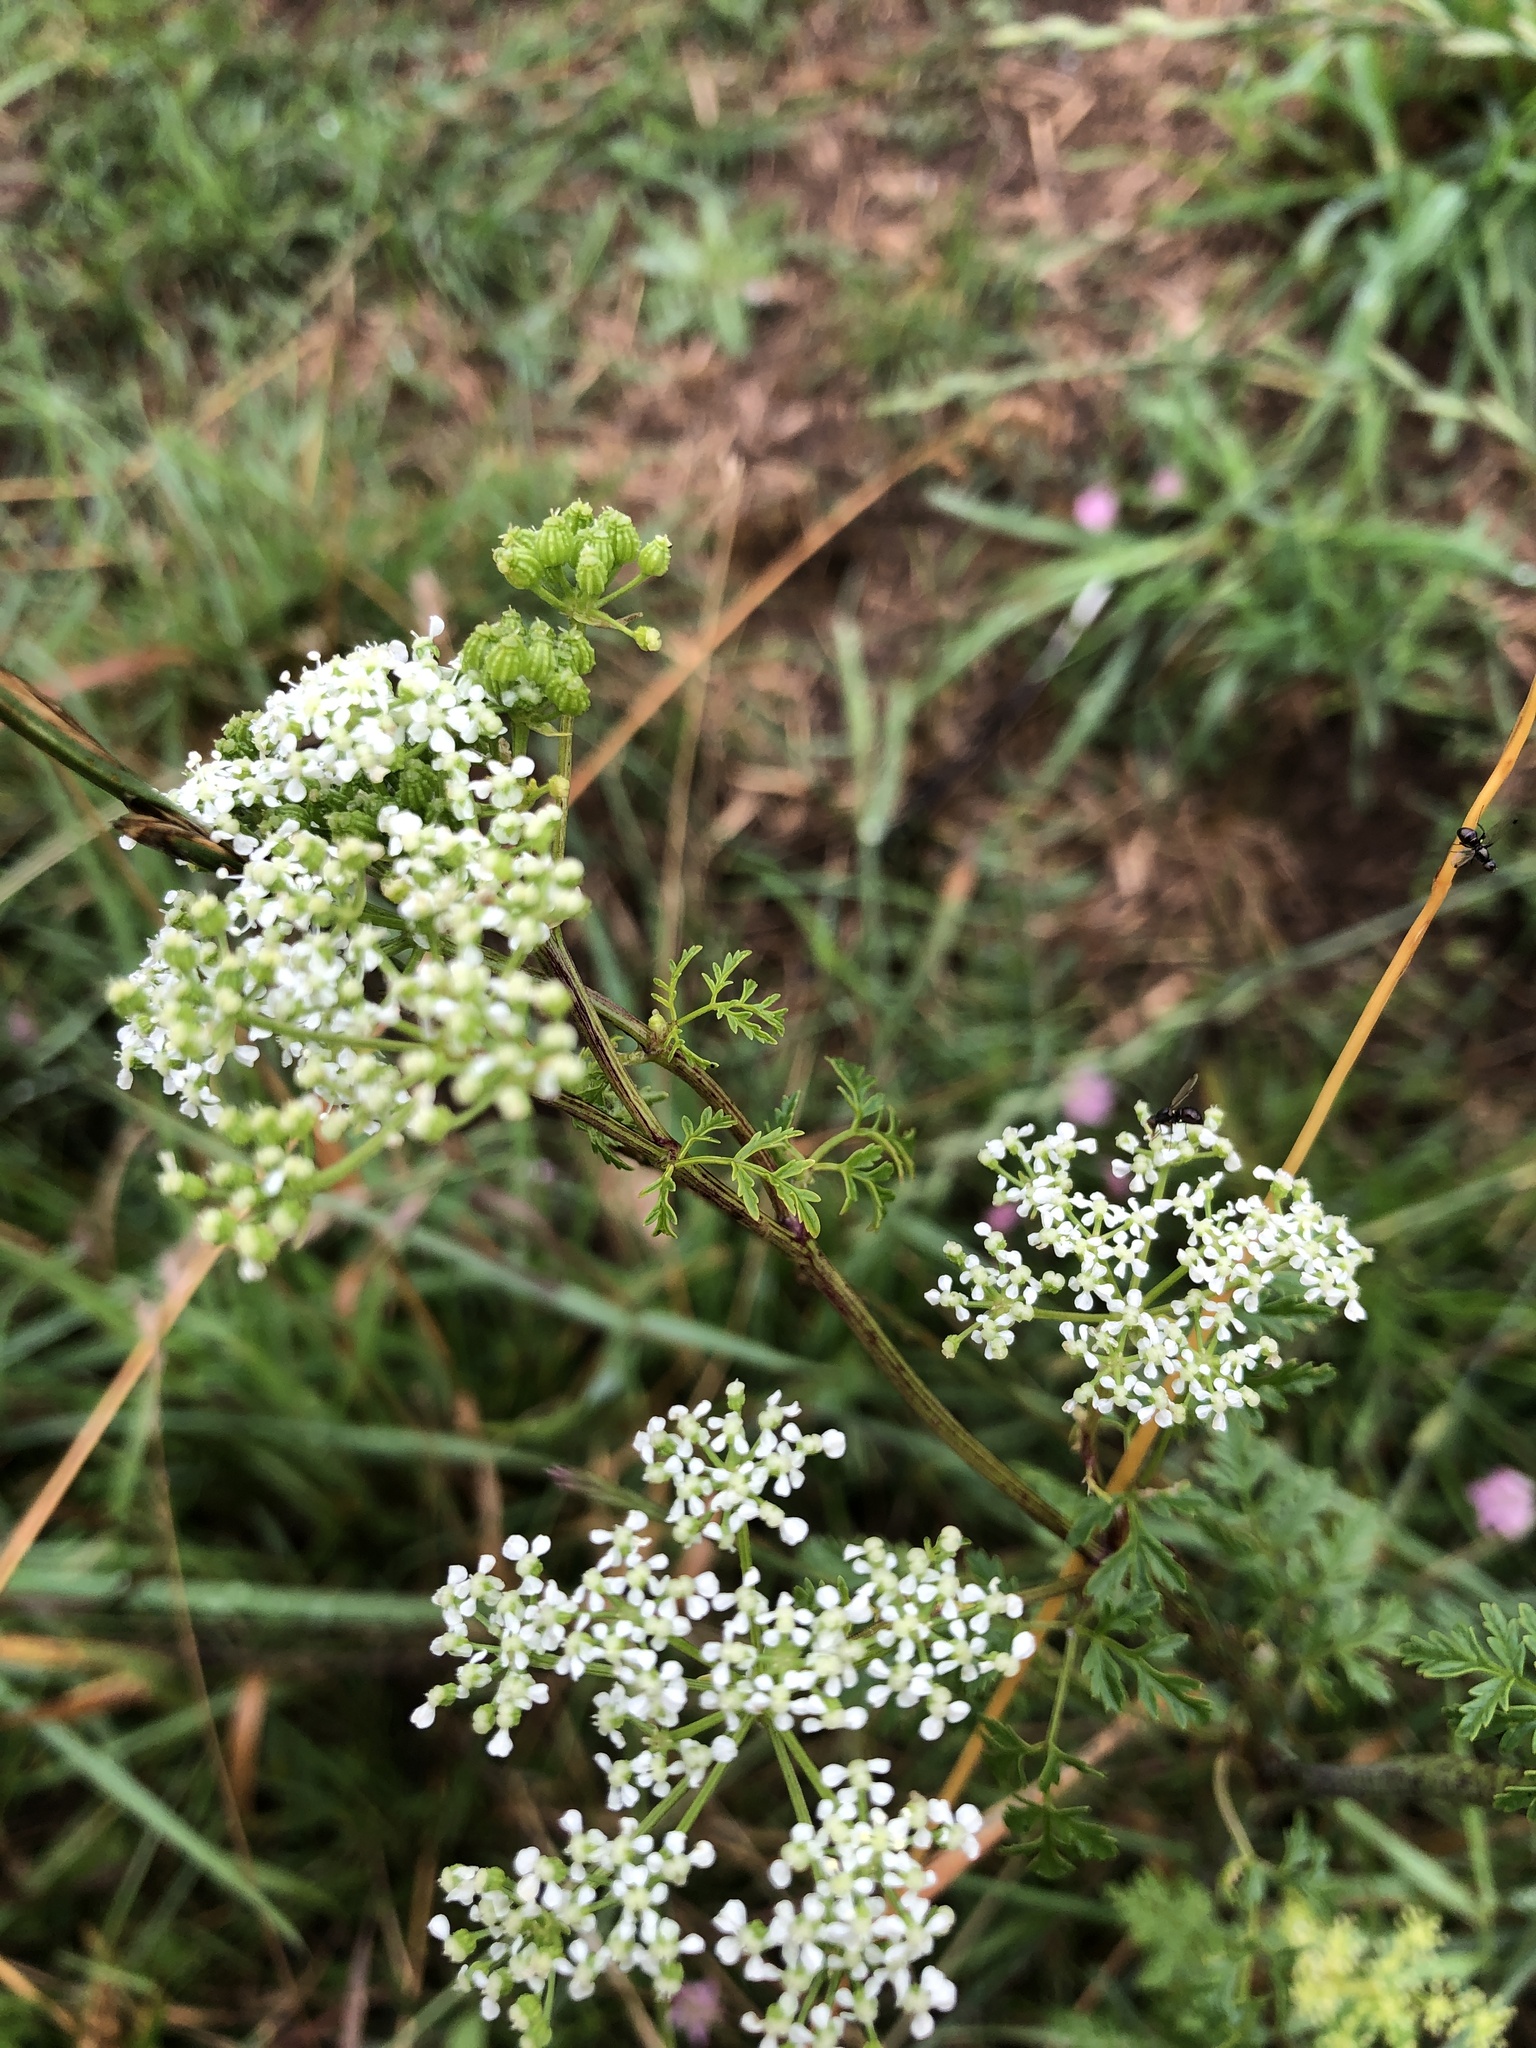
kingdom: Plantae
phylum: Tracheophyta
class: Magnoliopsida
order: Apiales
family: Apiaceae
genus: Conium
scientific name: Conium maculatum
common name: Hemlock
